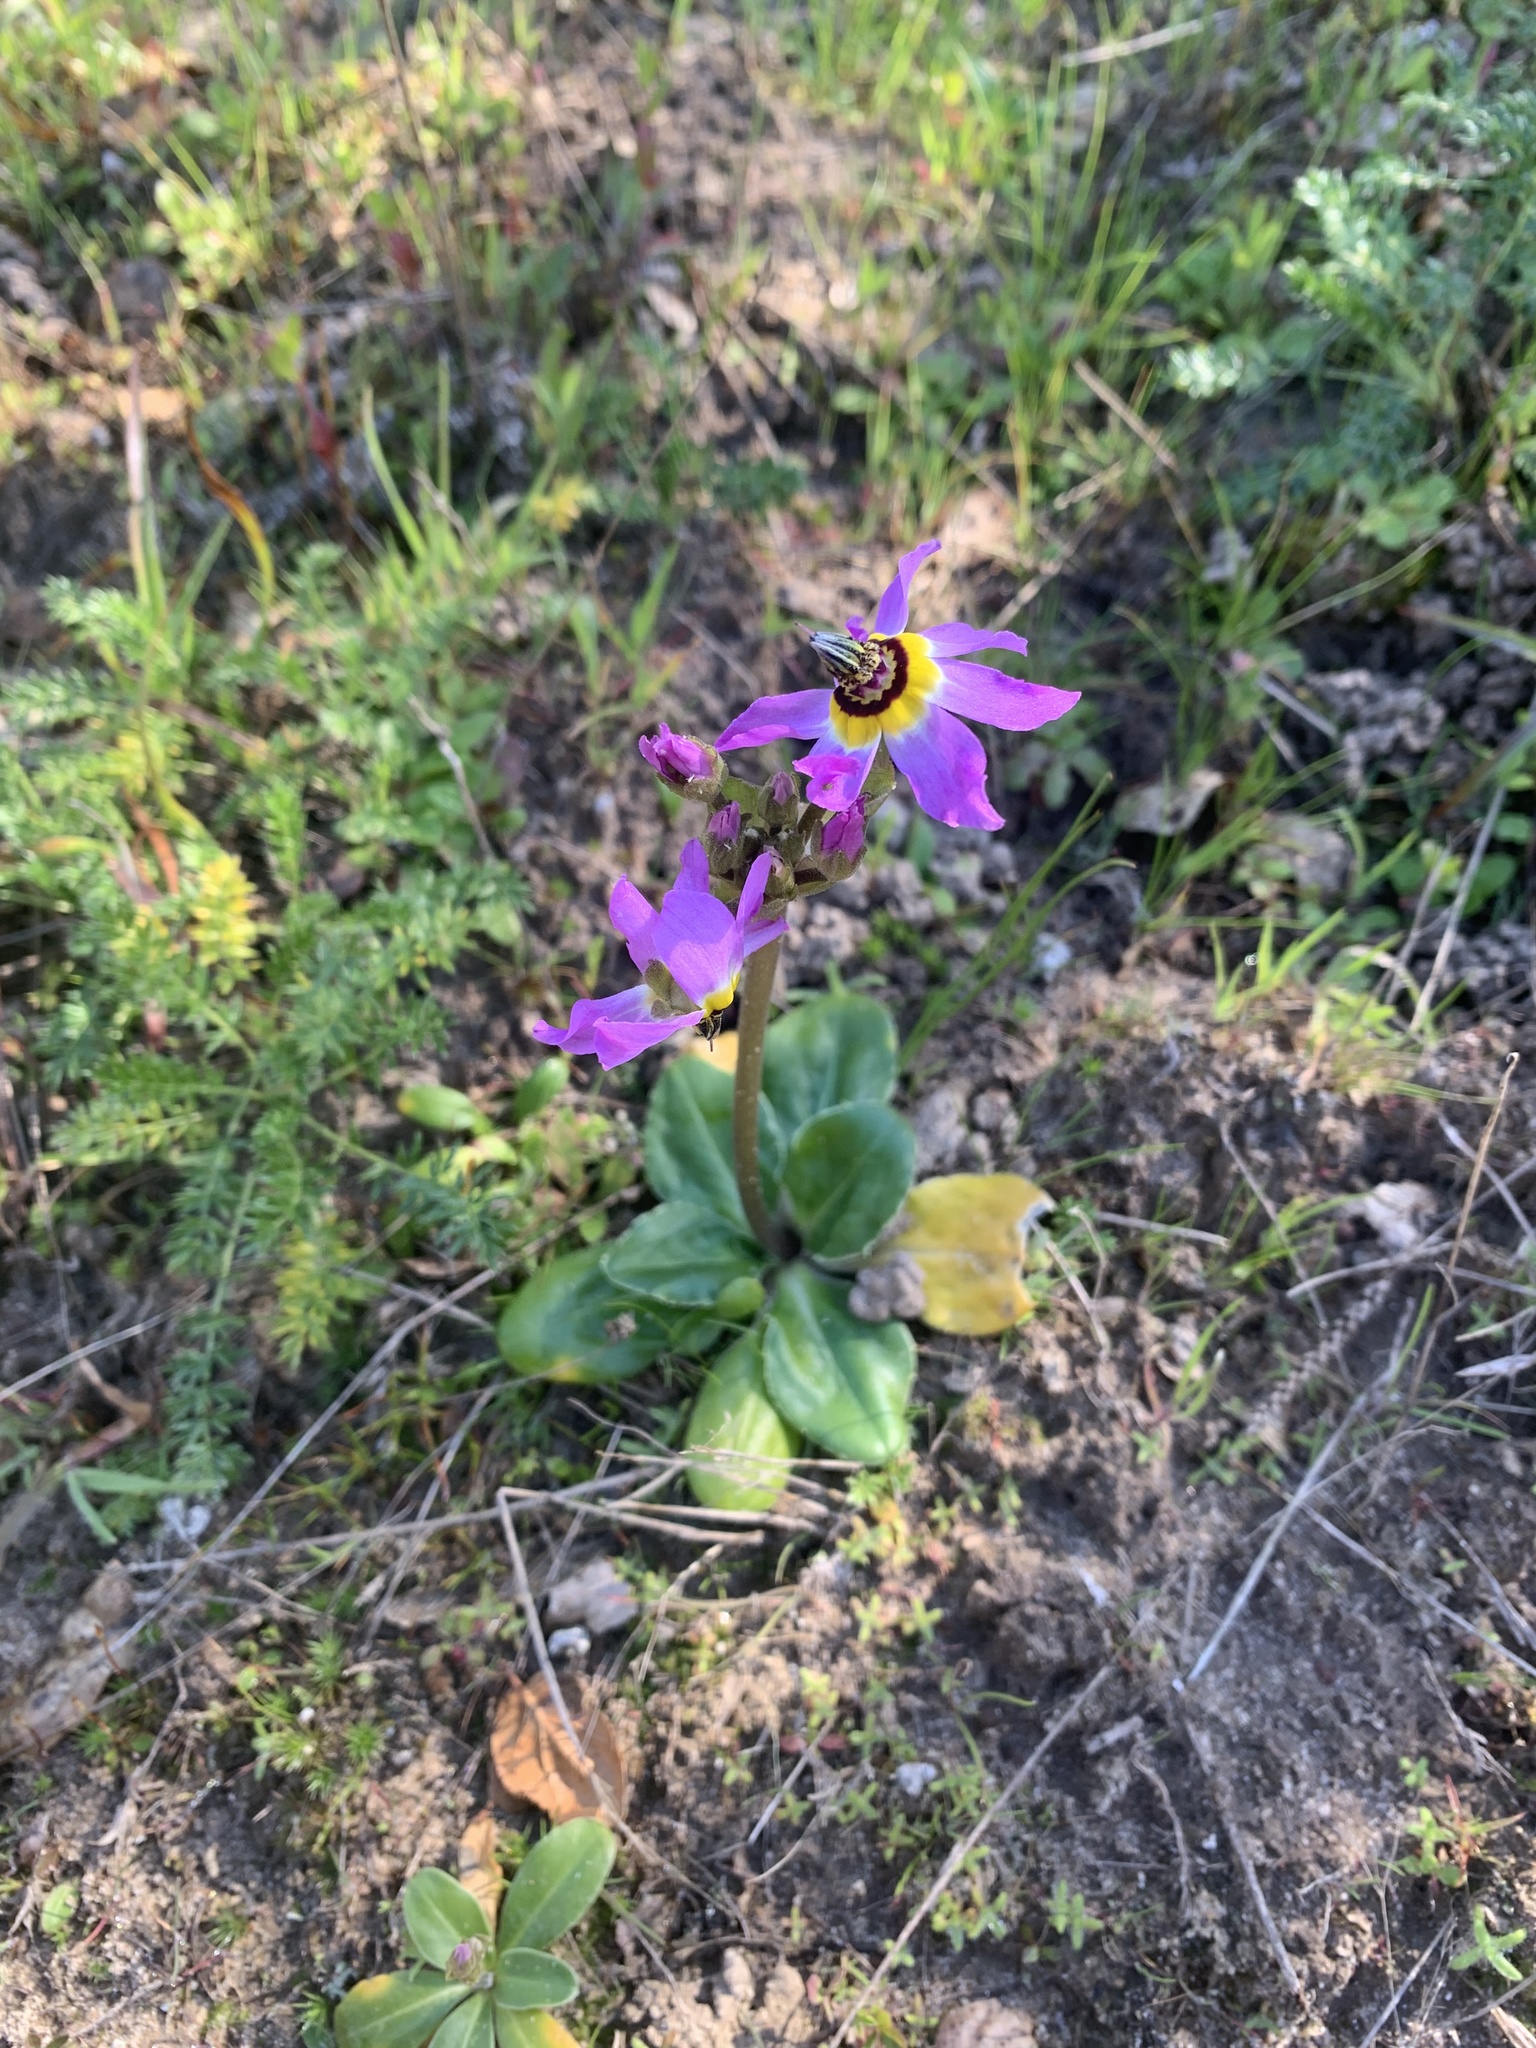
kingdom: Plantae
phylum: Tracheophyta
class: Magnoliopsida
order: Ericales
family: Primulaceae
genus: Dodecatheon
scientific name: Dodecatheon clevelandii
